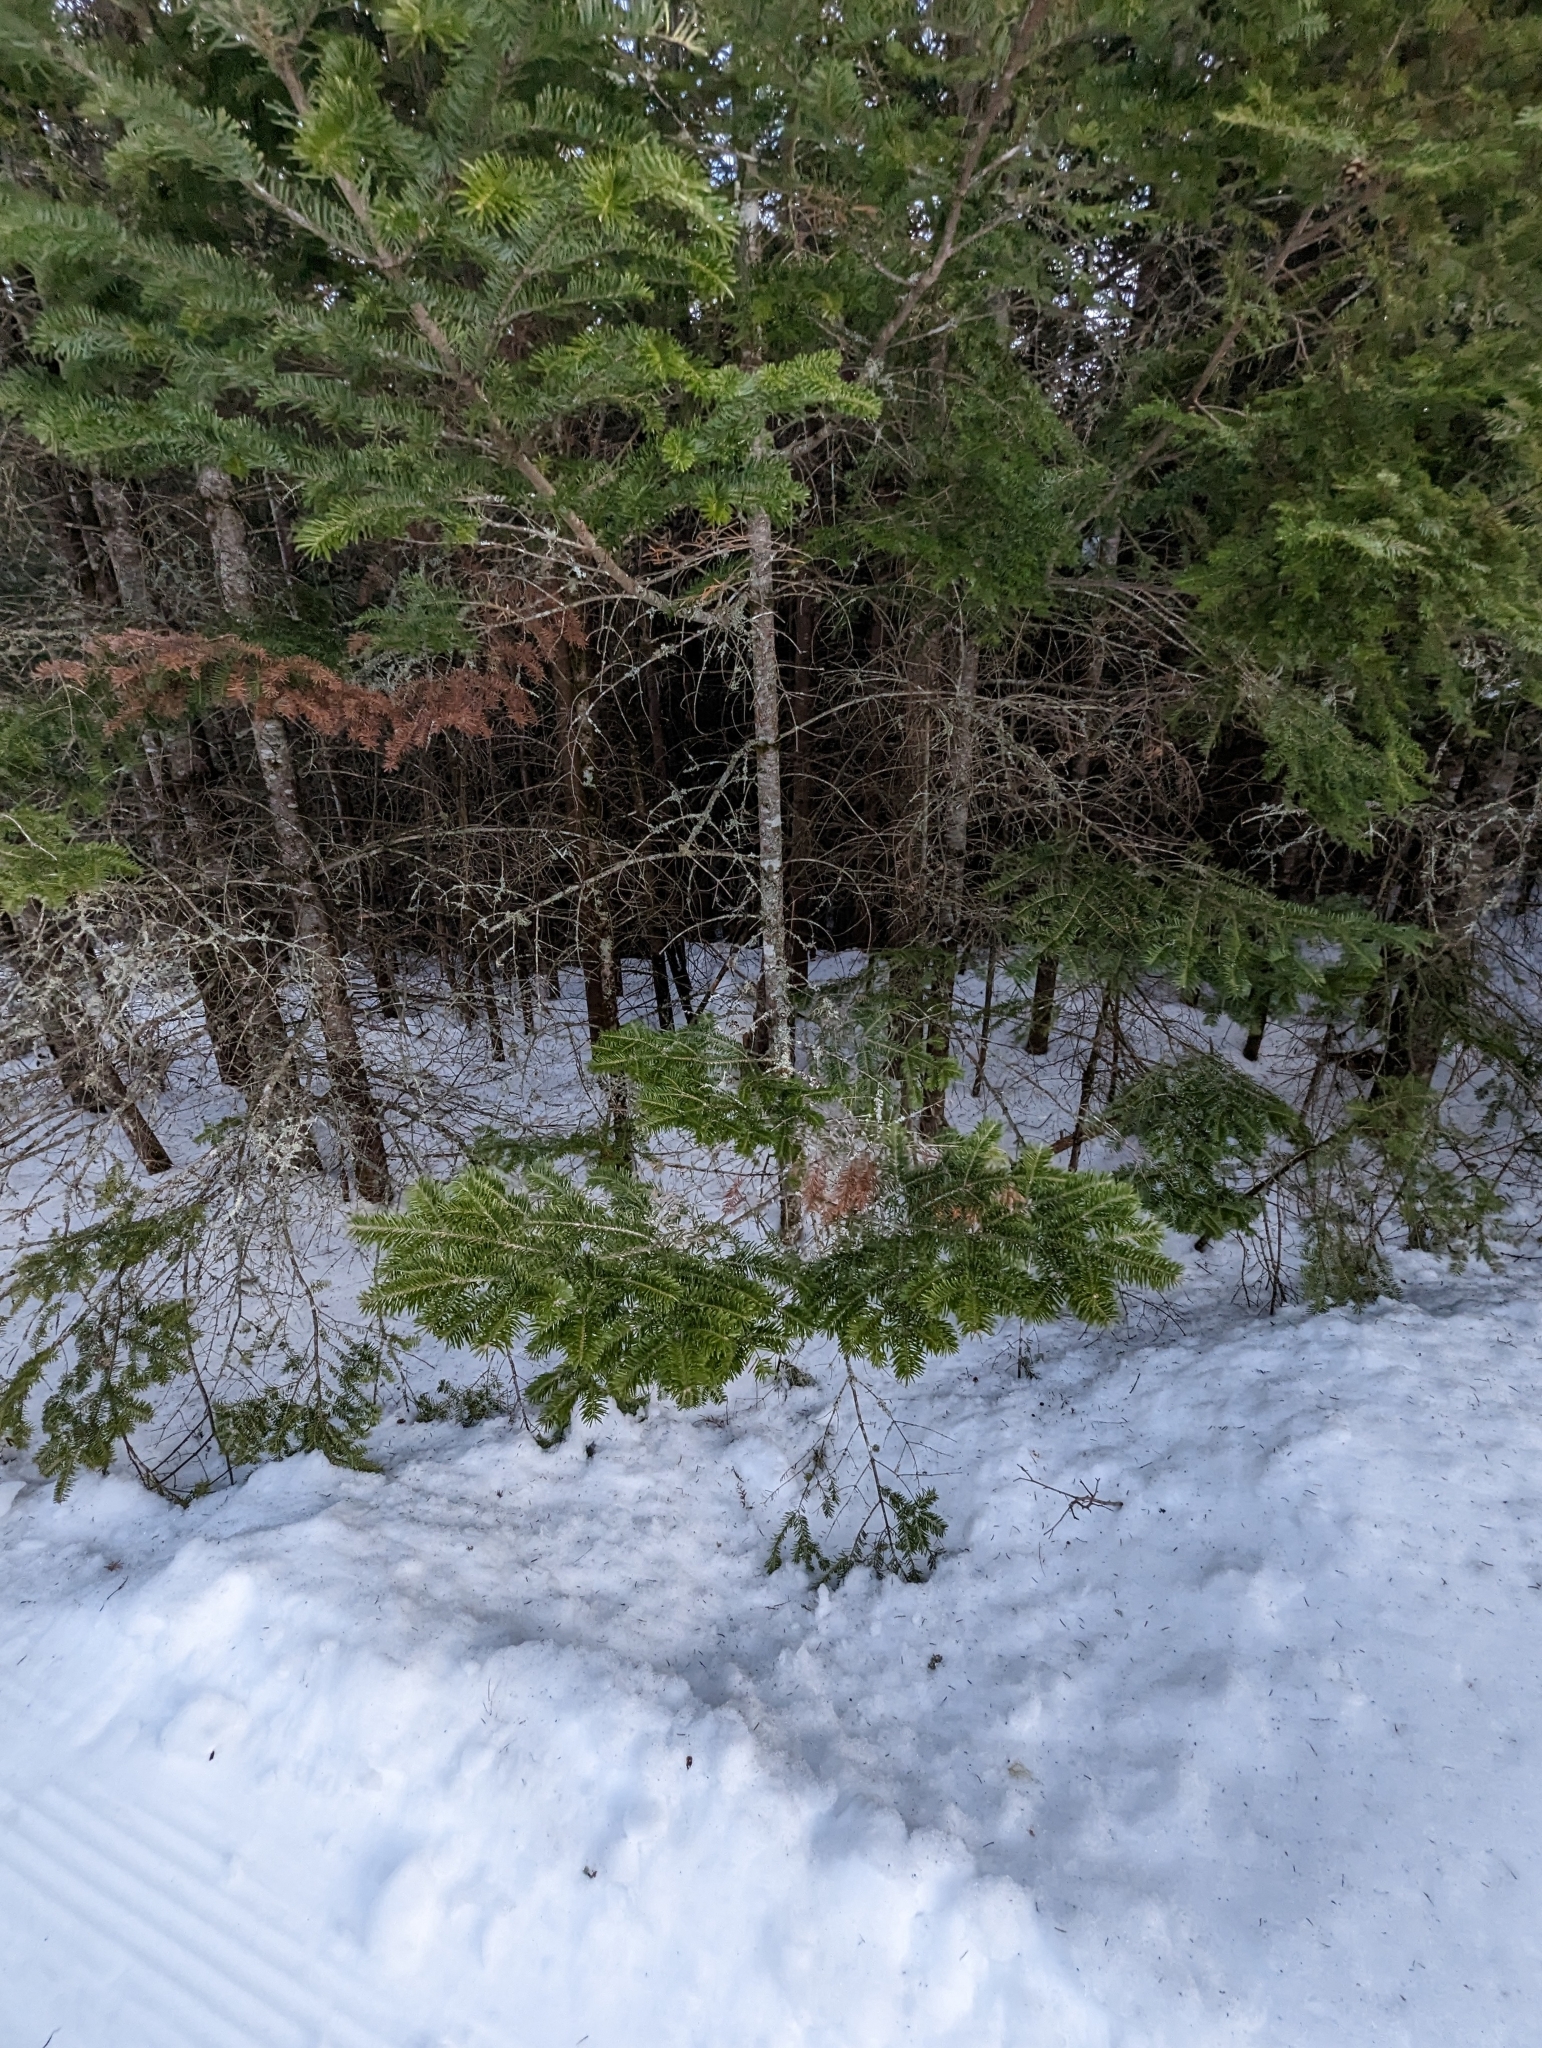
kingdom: Plantae
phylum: Tracheophyta
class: Pinopsida
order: Pinales
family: Pinaceae
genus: Abies
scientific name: Abies balsamea
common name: Balsam fir
